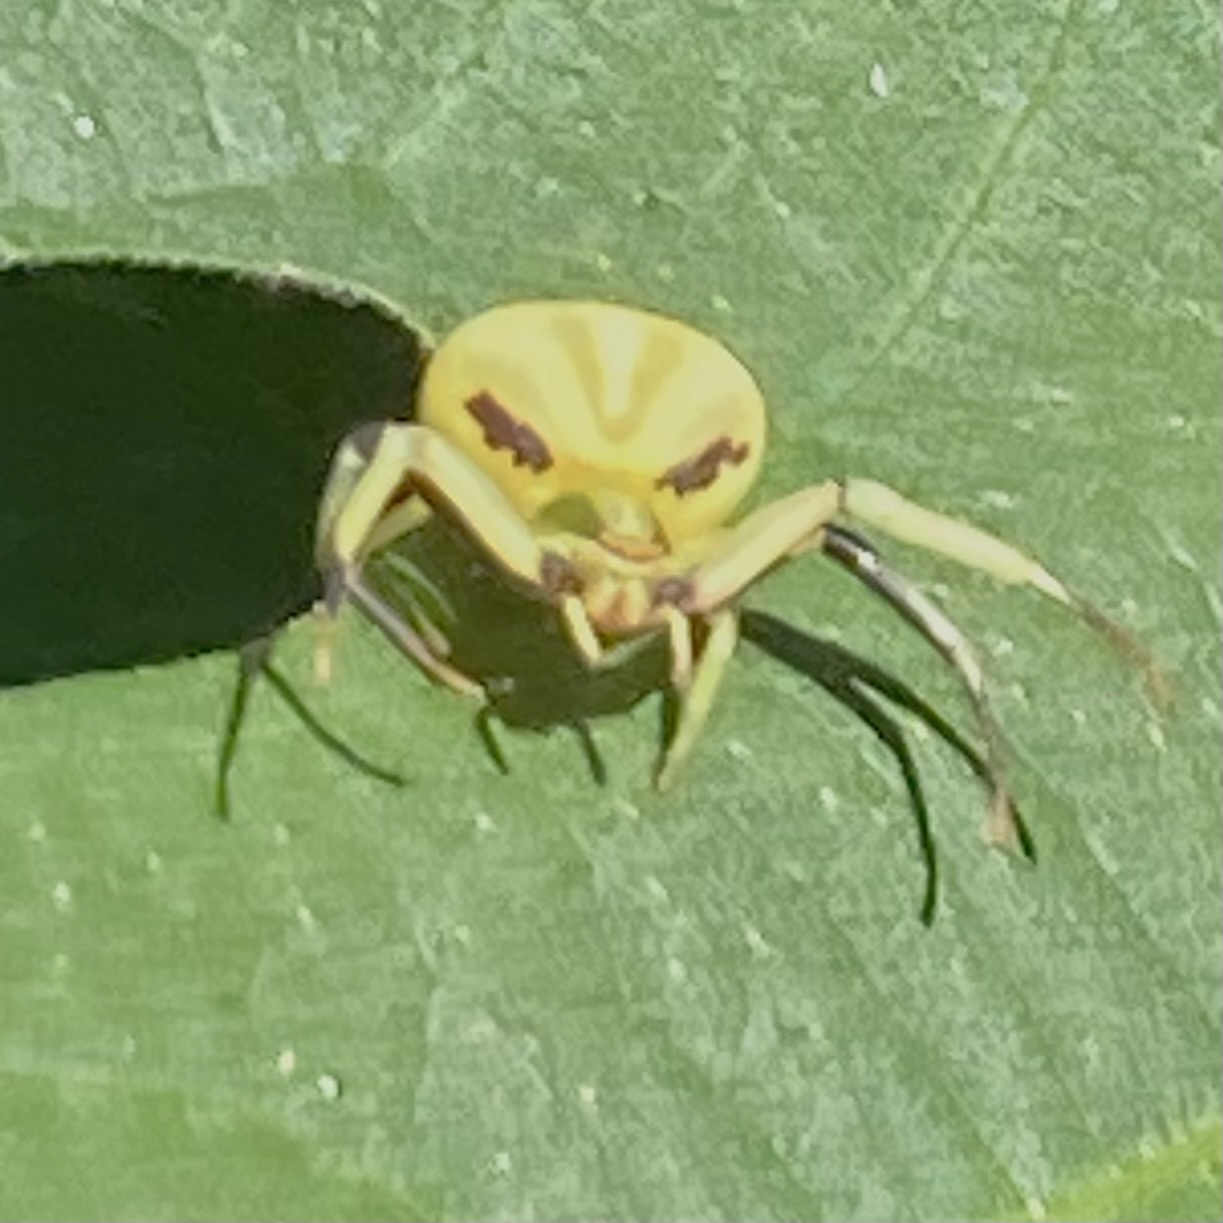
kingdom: Animalia
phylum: Arthropoda
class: Arachnida
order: Araneae
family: Thomisidae
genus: Misumenoides
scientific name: Misumenoides formosipes
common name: White-banded crab spider
